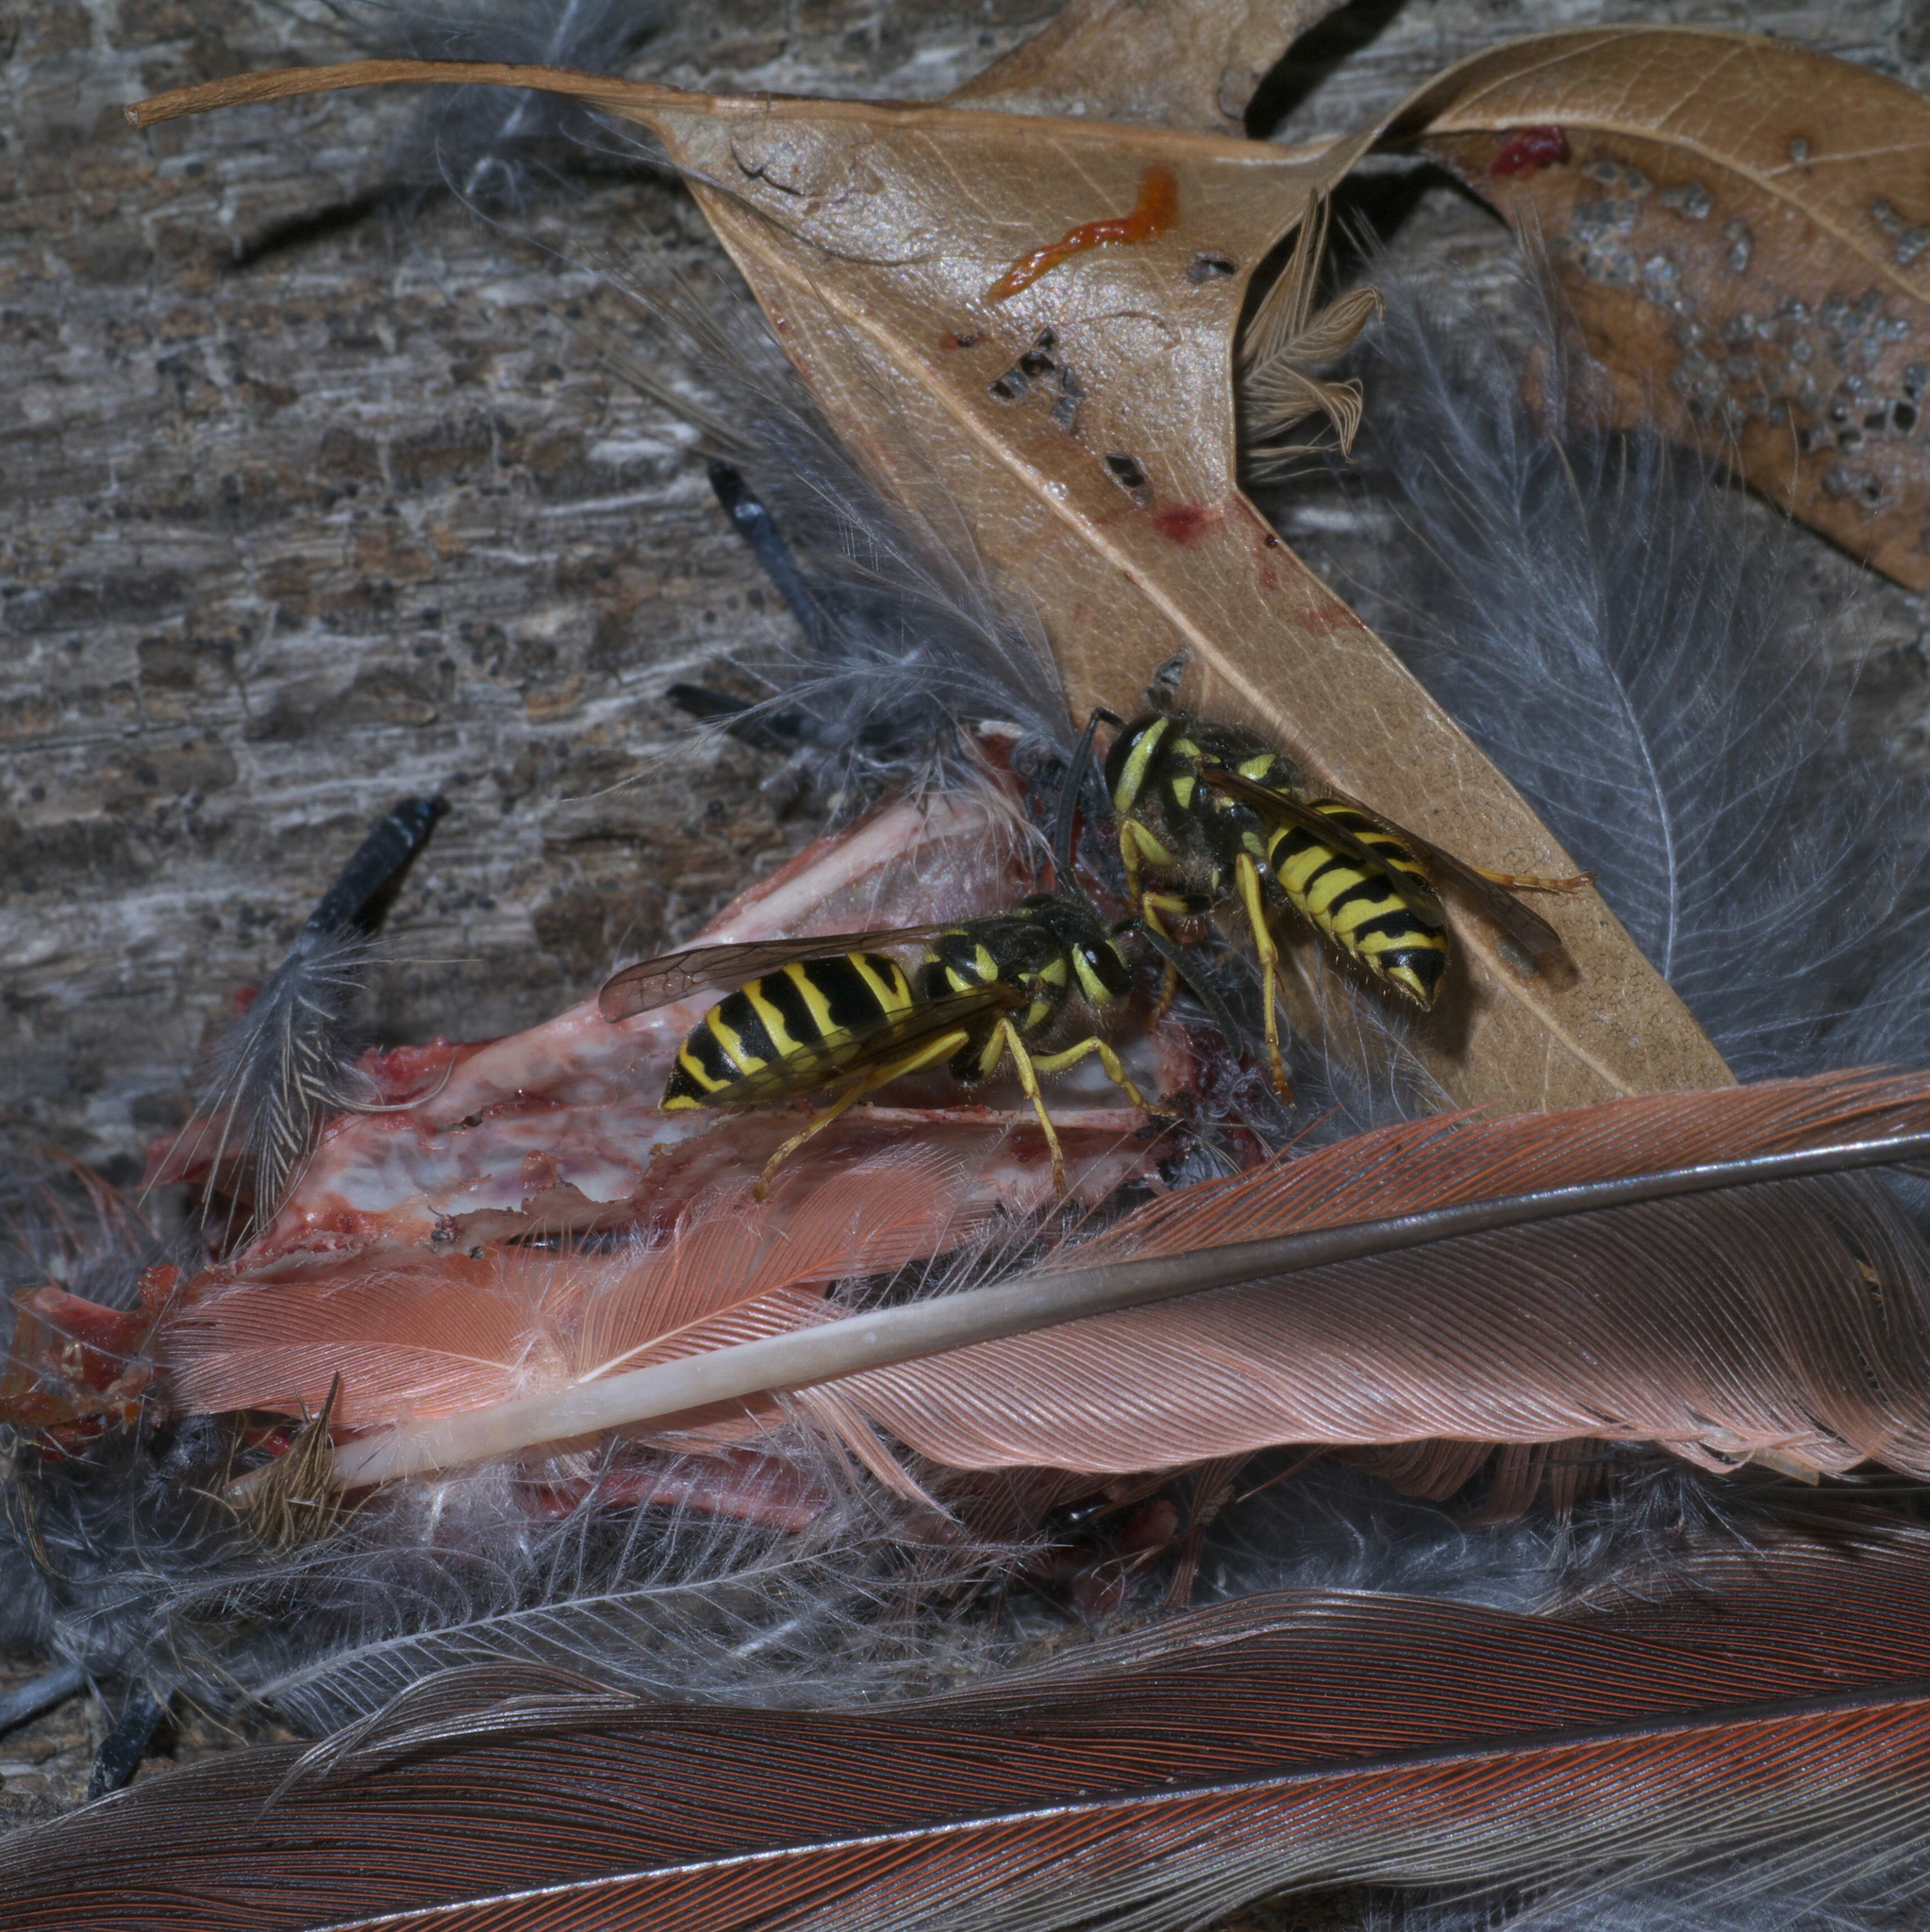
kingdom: Animalia
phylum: Arthropoda
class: Insecta
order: Hymenoptera
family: Vespidae
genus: Vespula
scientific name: Vespula maculifrons
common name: Eastern yellowjacket
